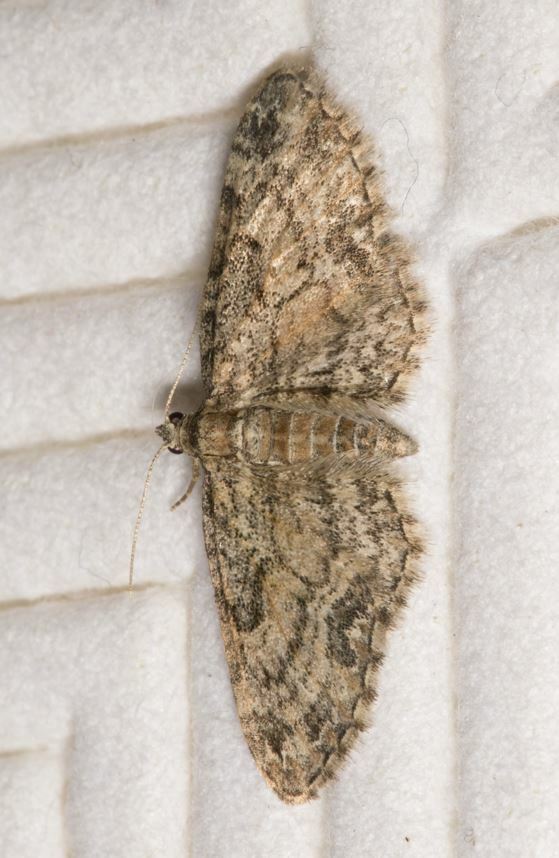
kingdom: Animalia
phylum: Arthropoda
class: Insecta
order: Lepidoptera
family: Geometridae
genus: Eupithecia
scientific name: Eupithecia inturbata
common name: Maple pug
